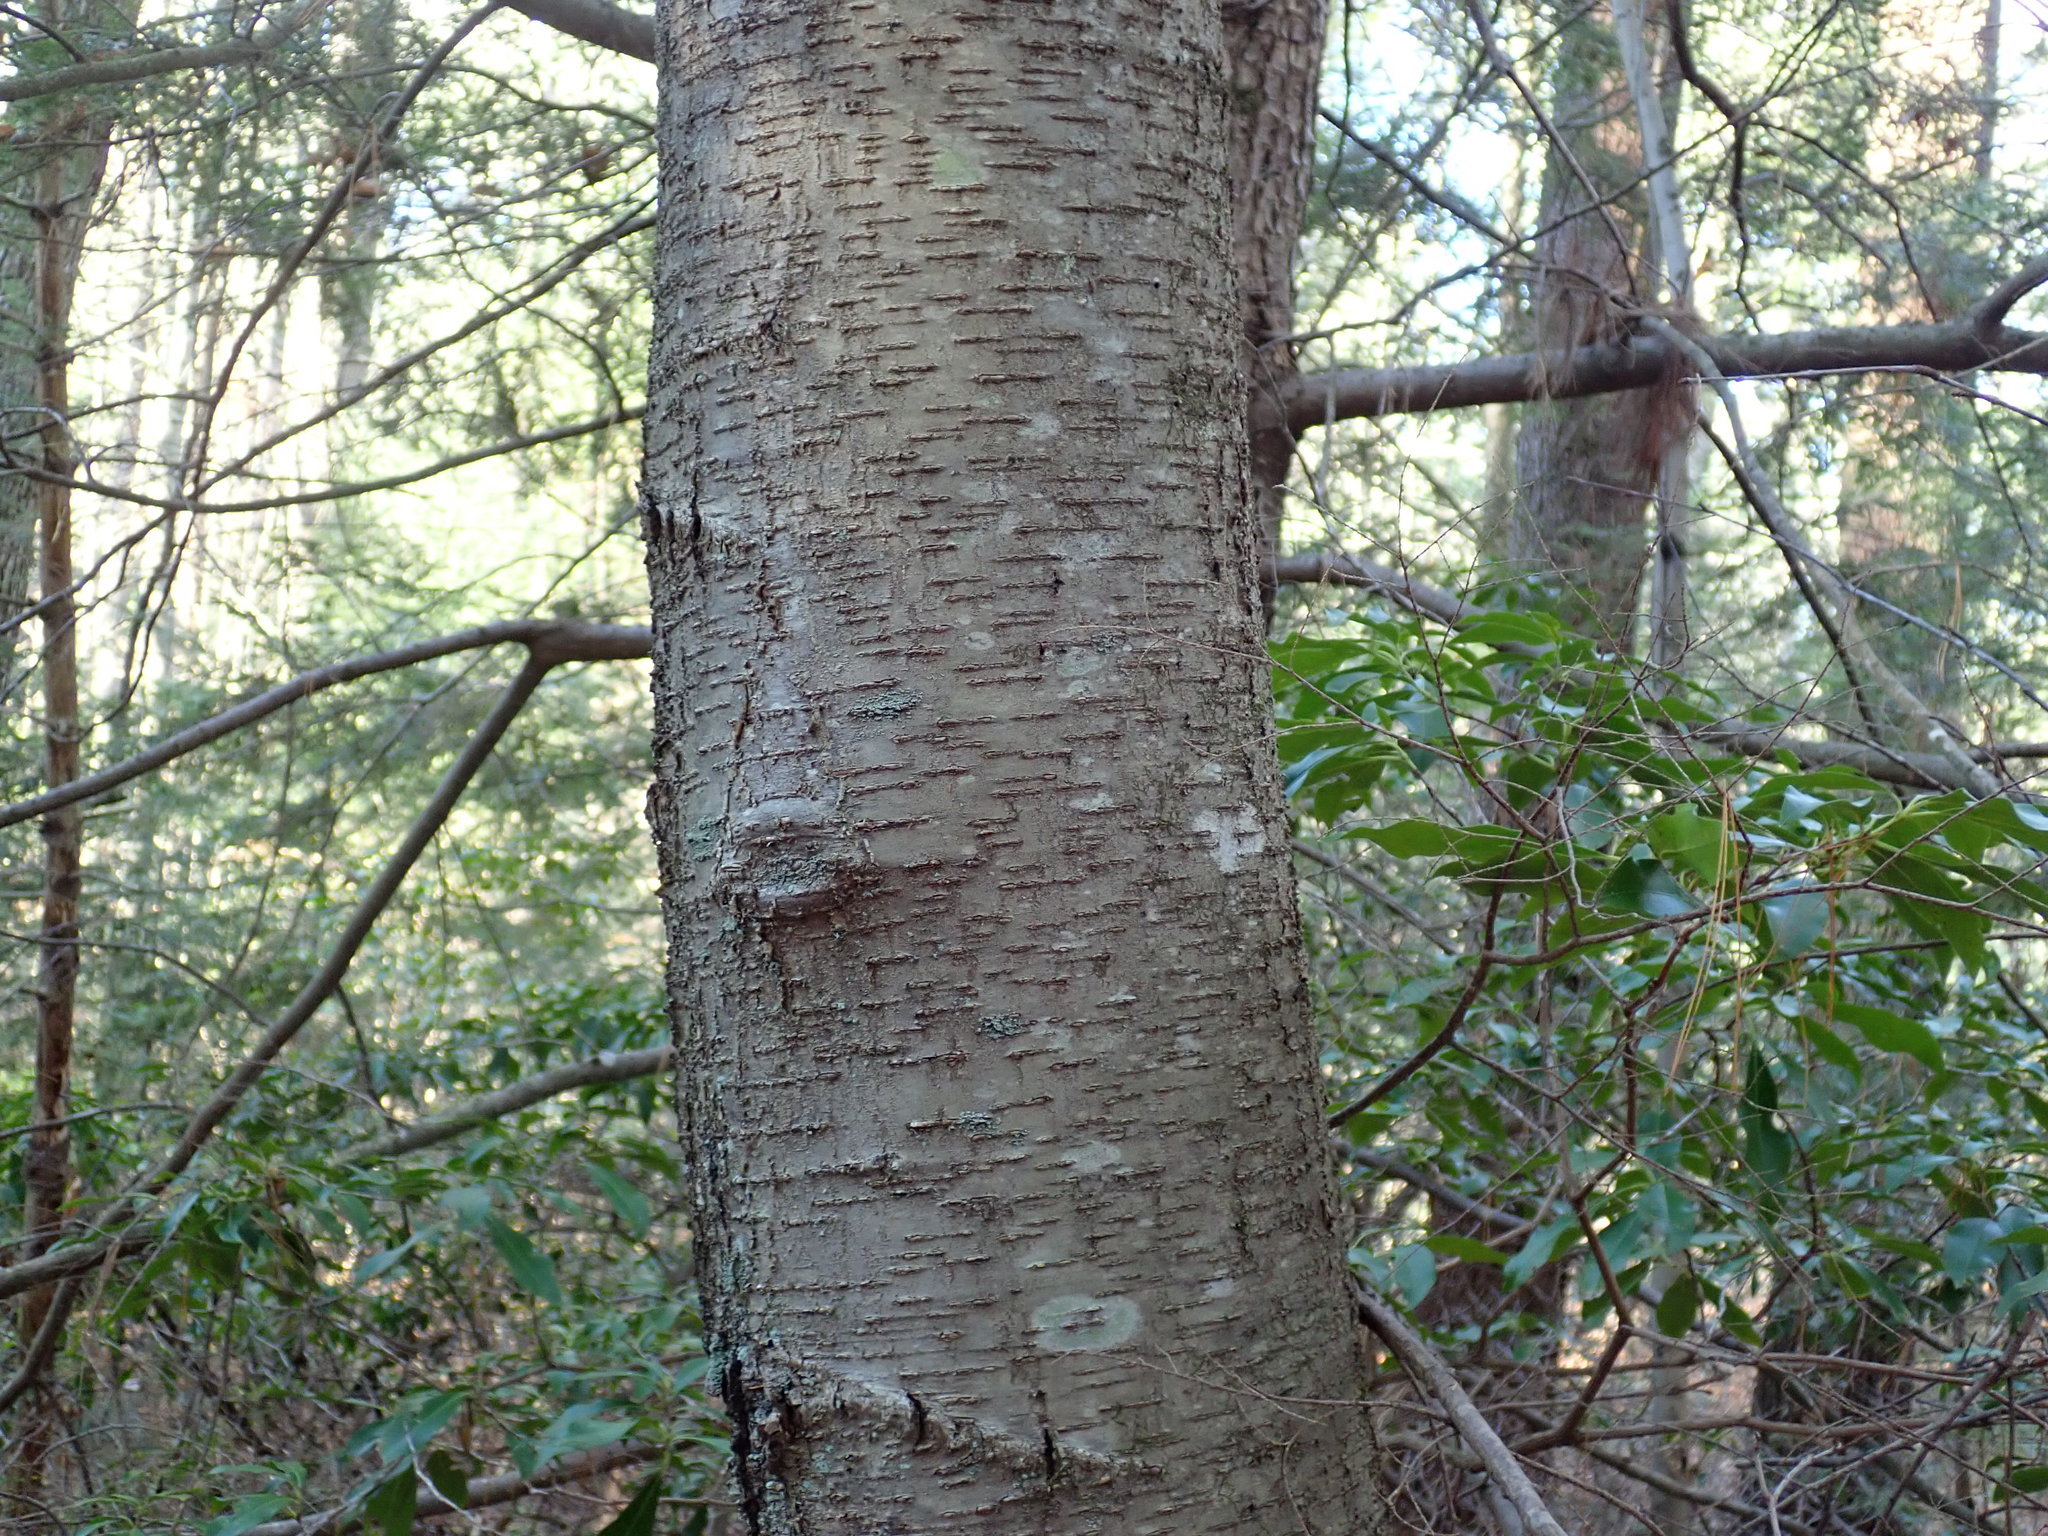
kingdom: Plantae
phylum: Tracheophyta
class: Magnoliopsida
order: Fagales
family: Betulaceae
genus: Betula
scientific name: Betula lenta
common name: Black birch
